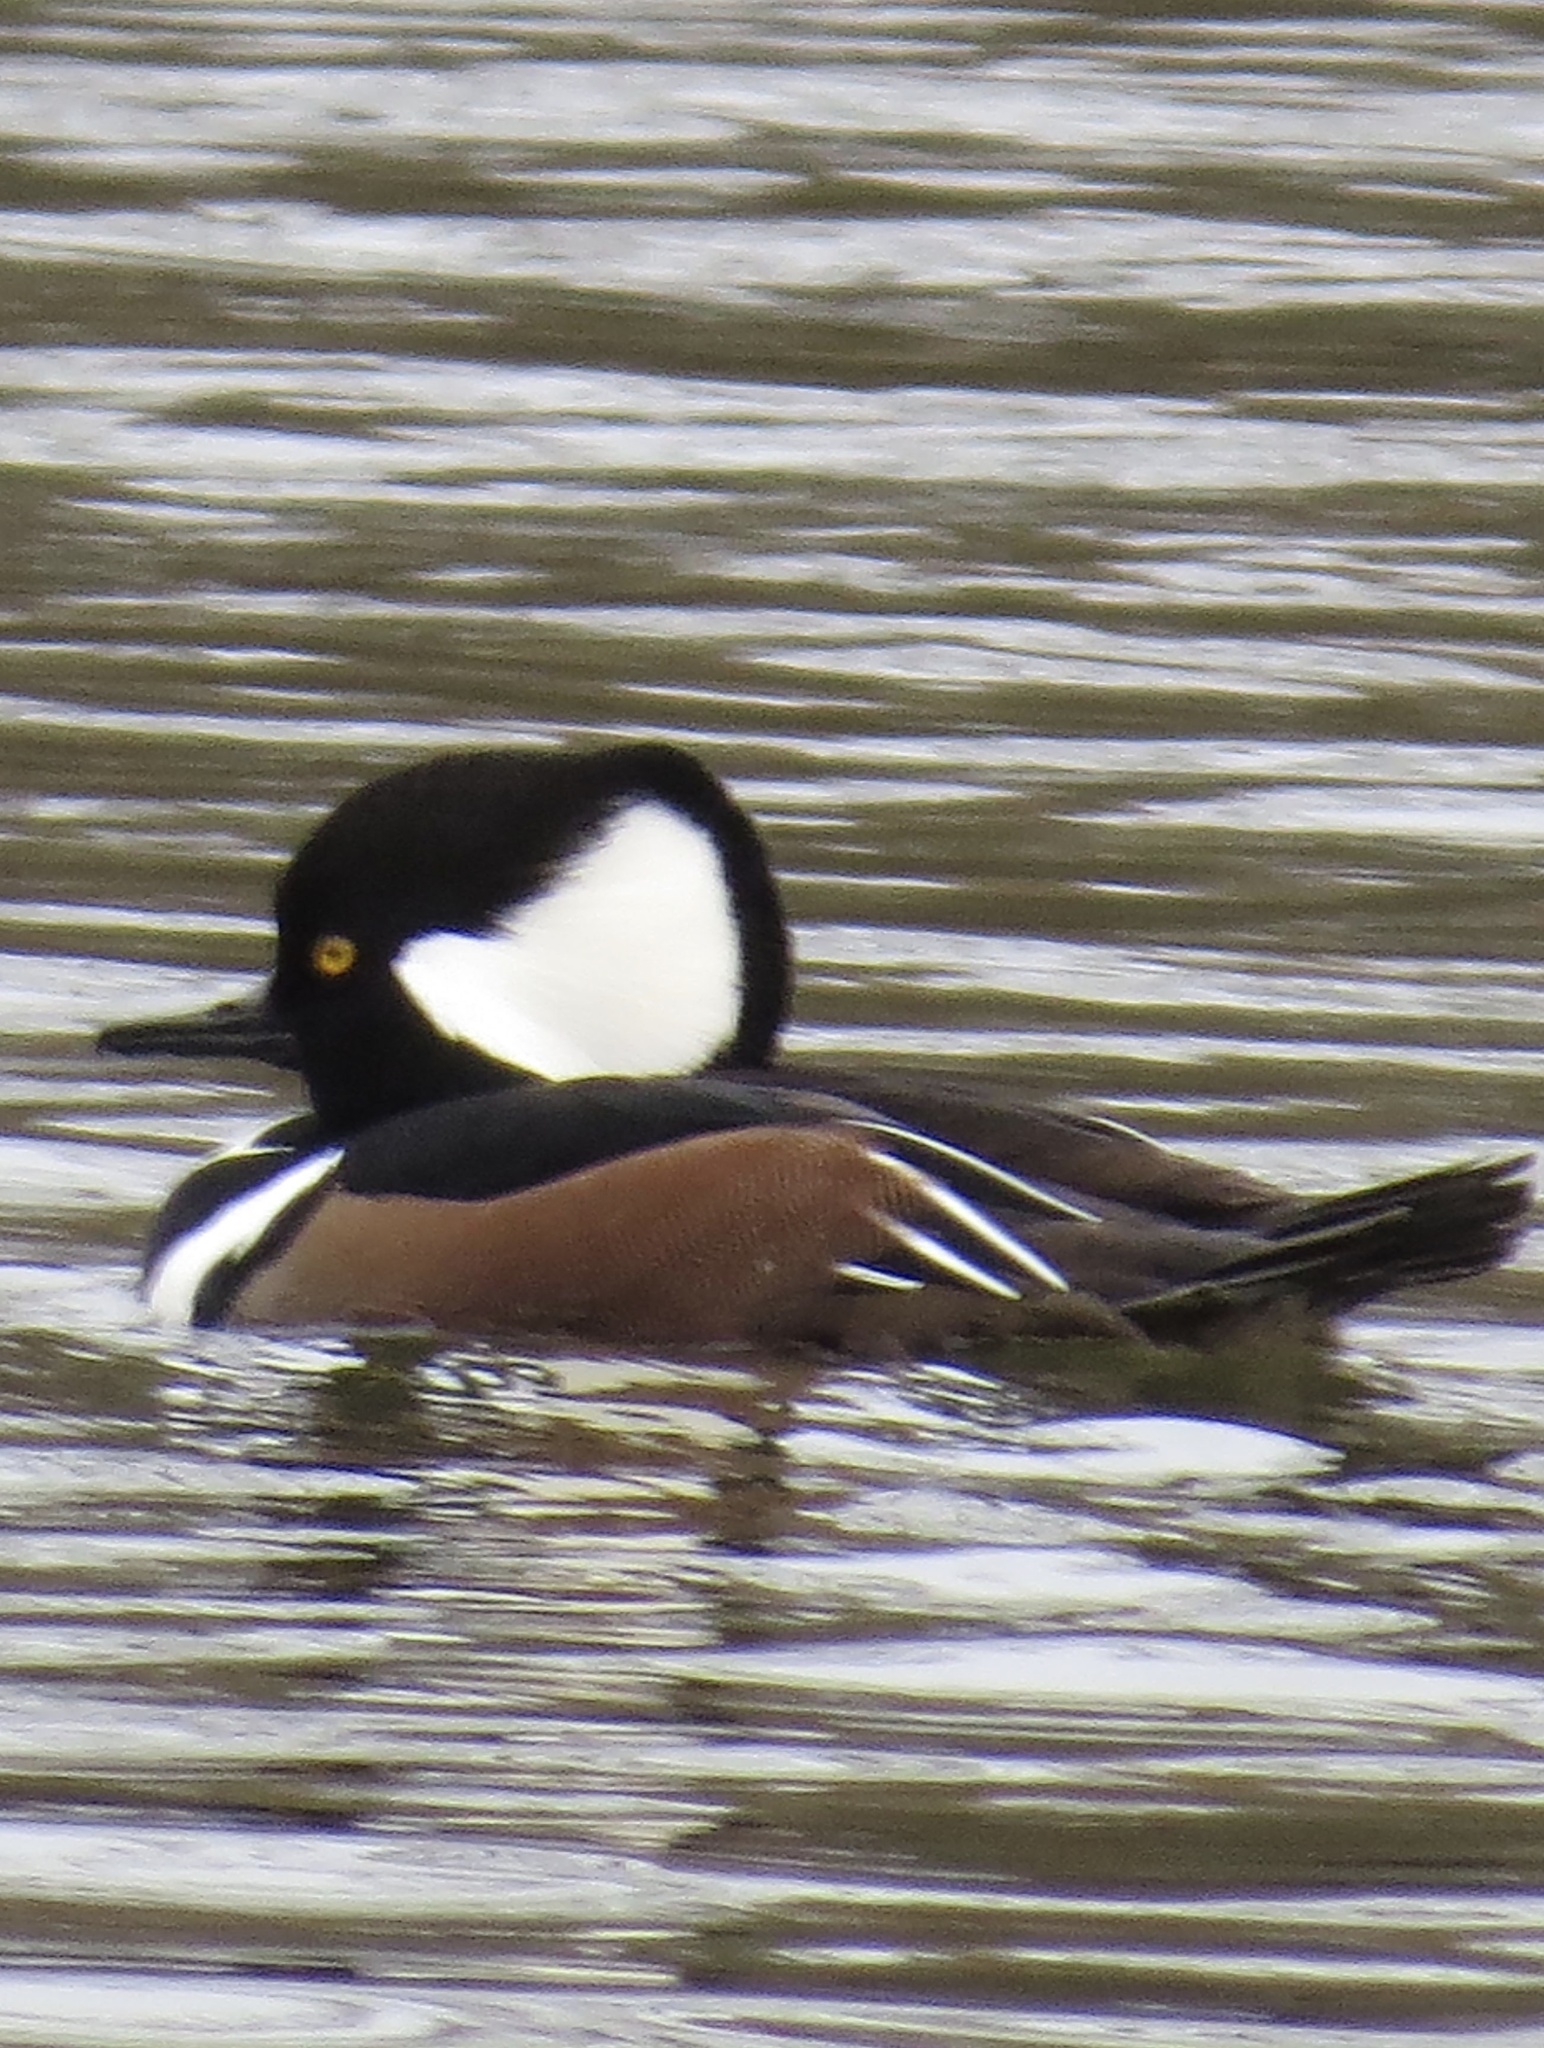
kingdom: Animalia
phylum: Chordata
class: Aves
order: Anseriformes
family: Anatidae
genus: Lophodytes
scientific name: Lophodytes cucullatus
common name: Hooded merganser
